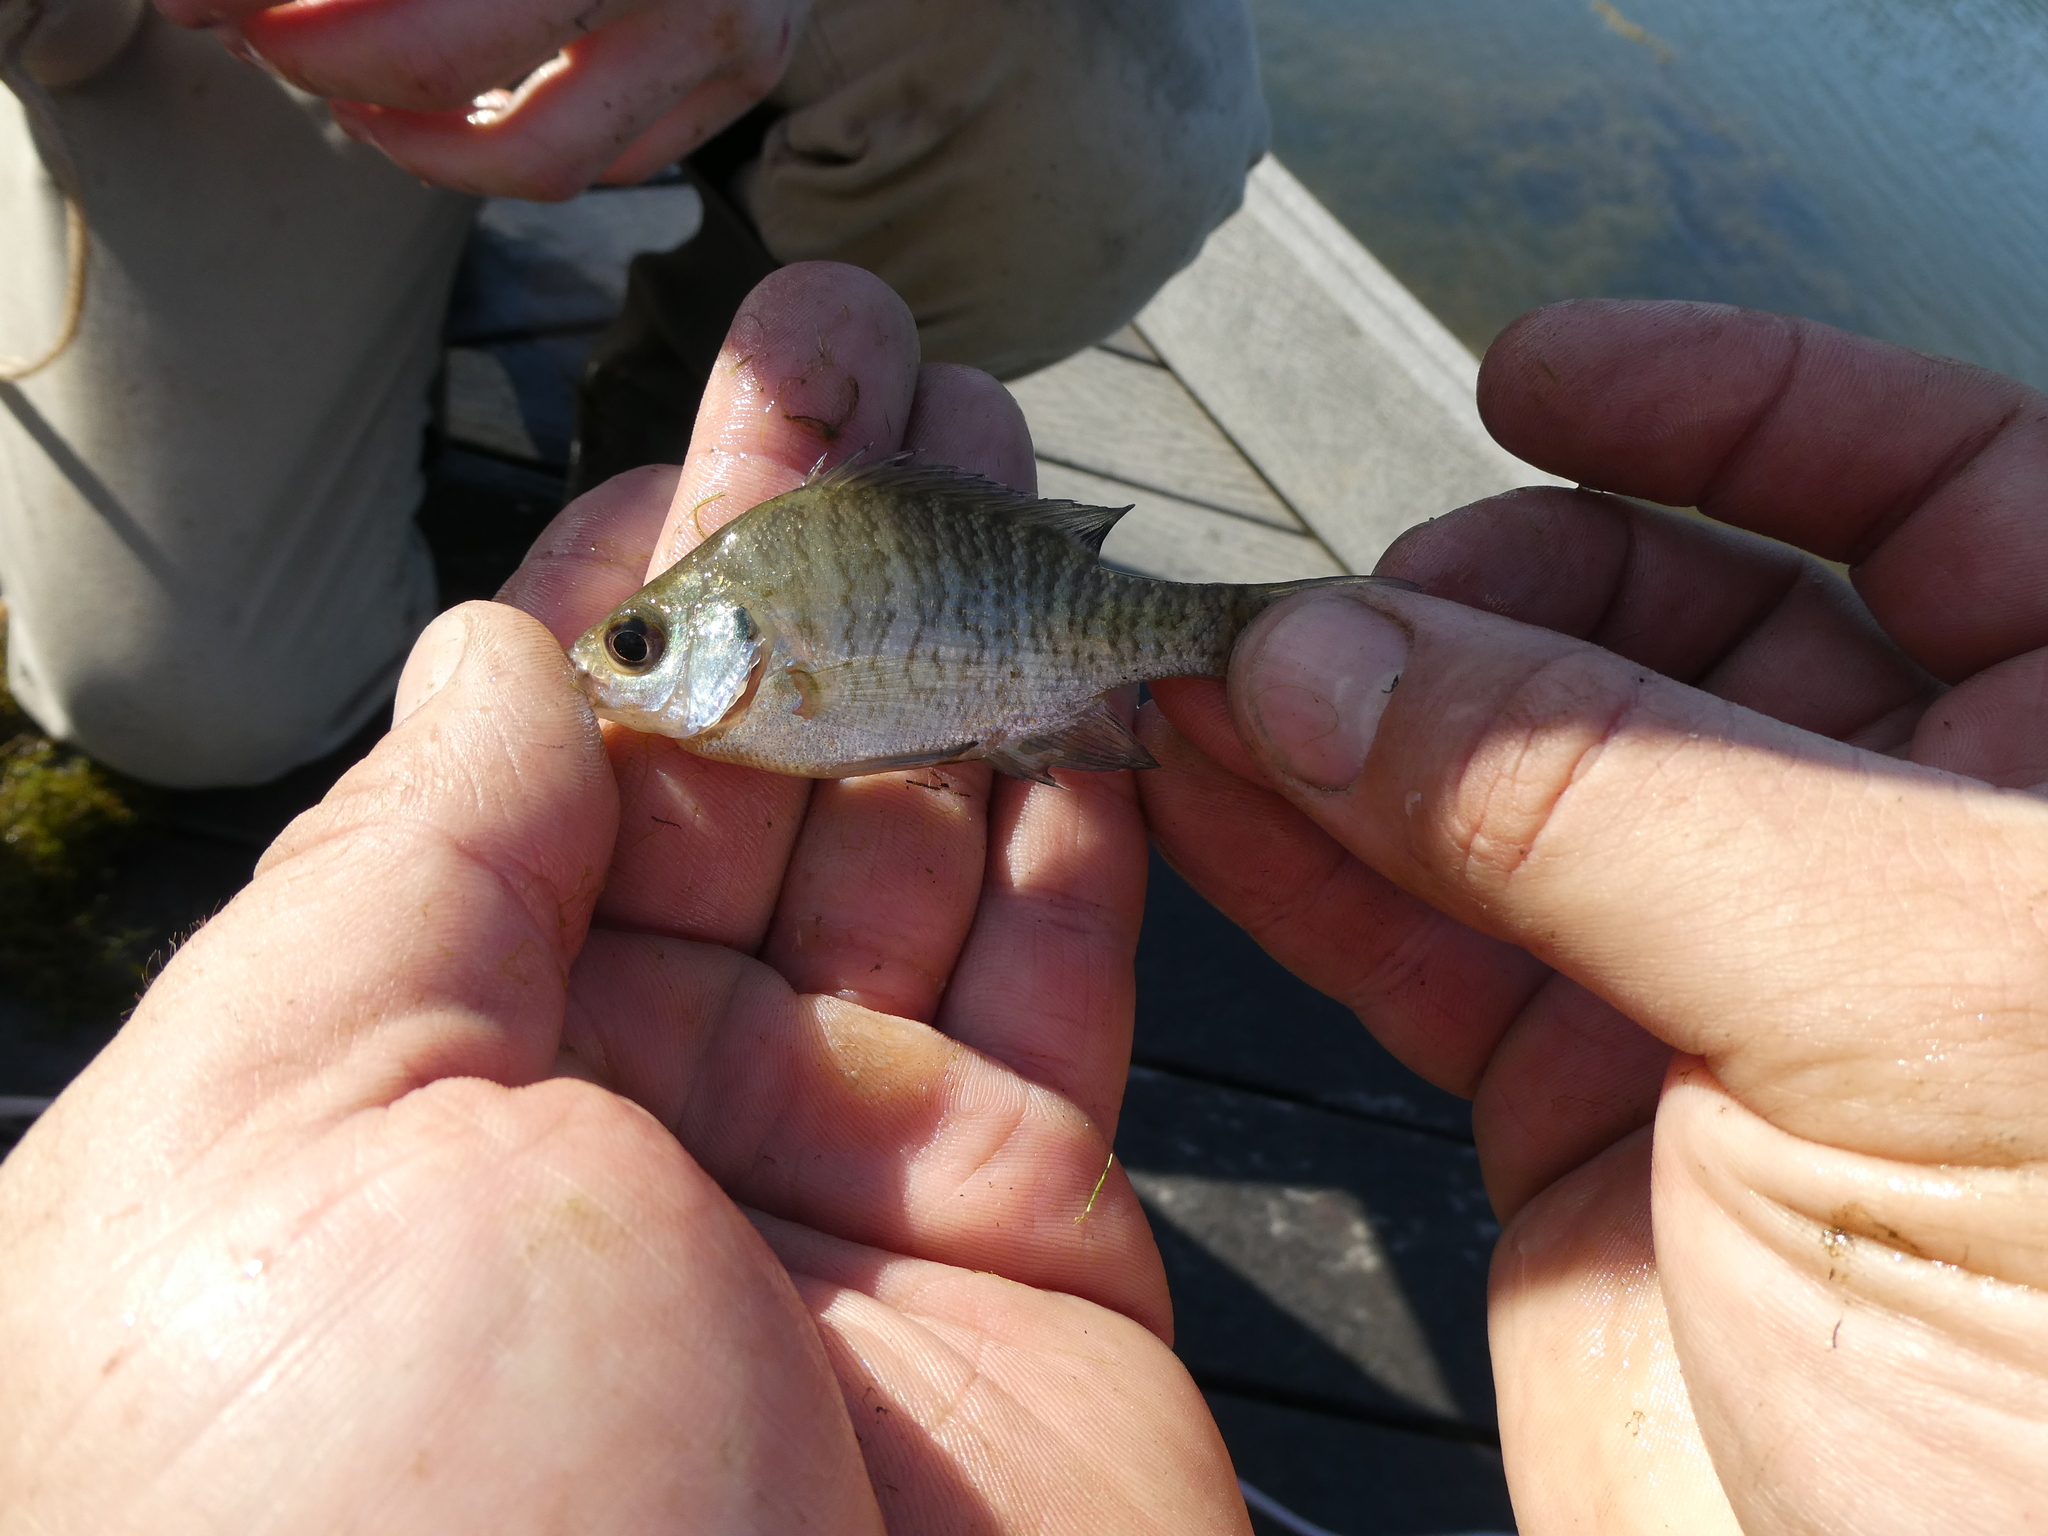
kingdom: Animalia
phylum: Chordata
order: Perciformes
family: Centrarchidae
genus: Lepomis
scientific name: Lepomis macrochirus
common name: Bluegill
